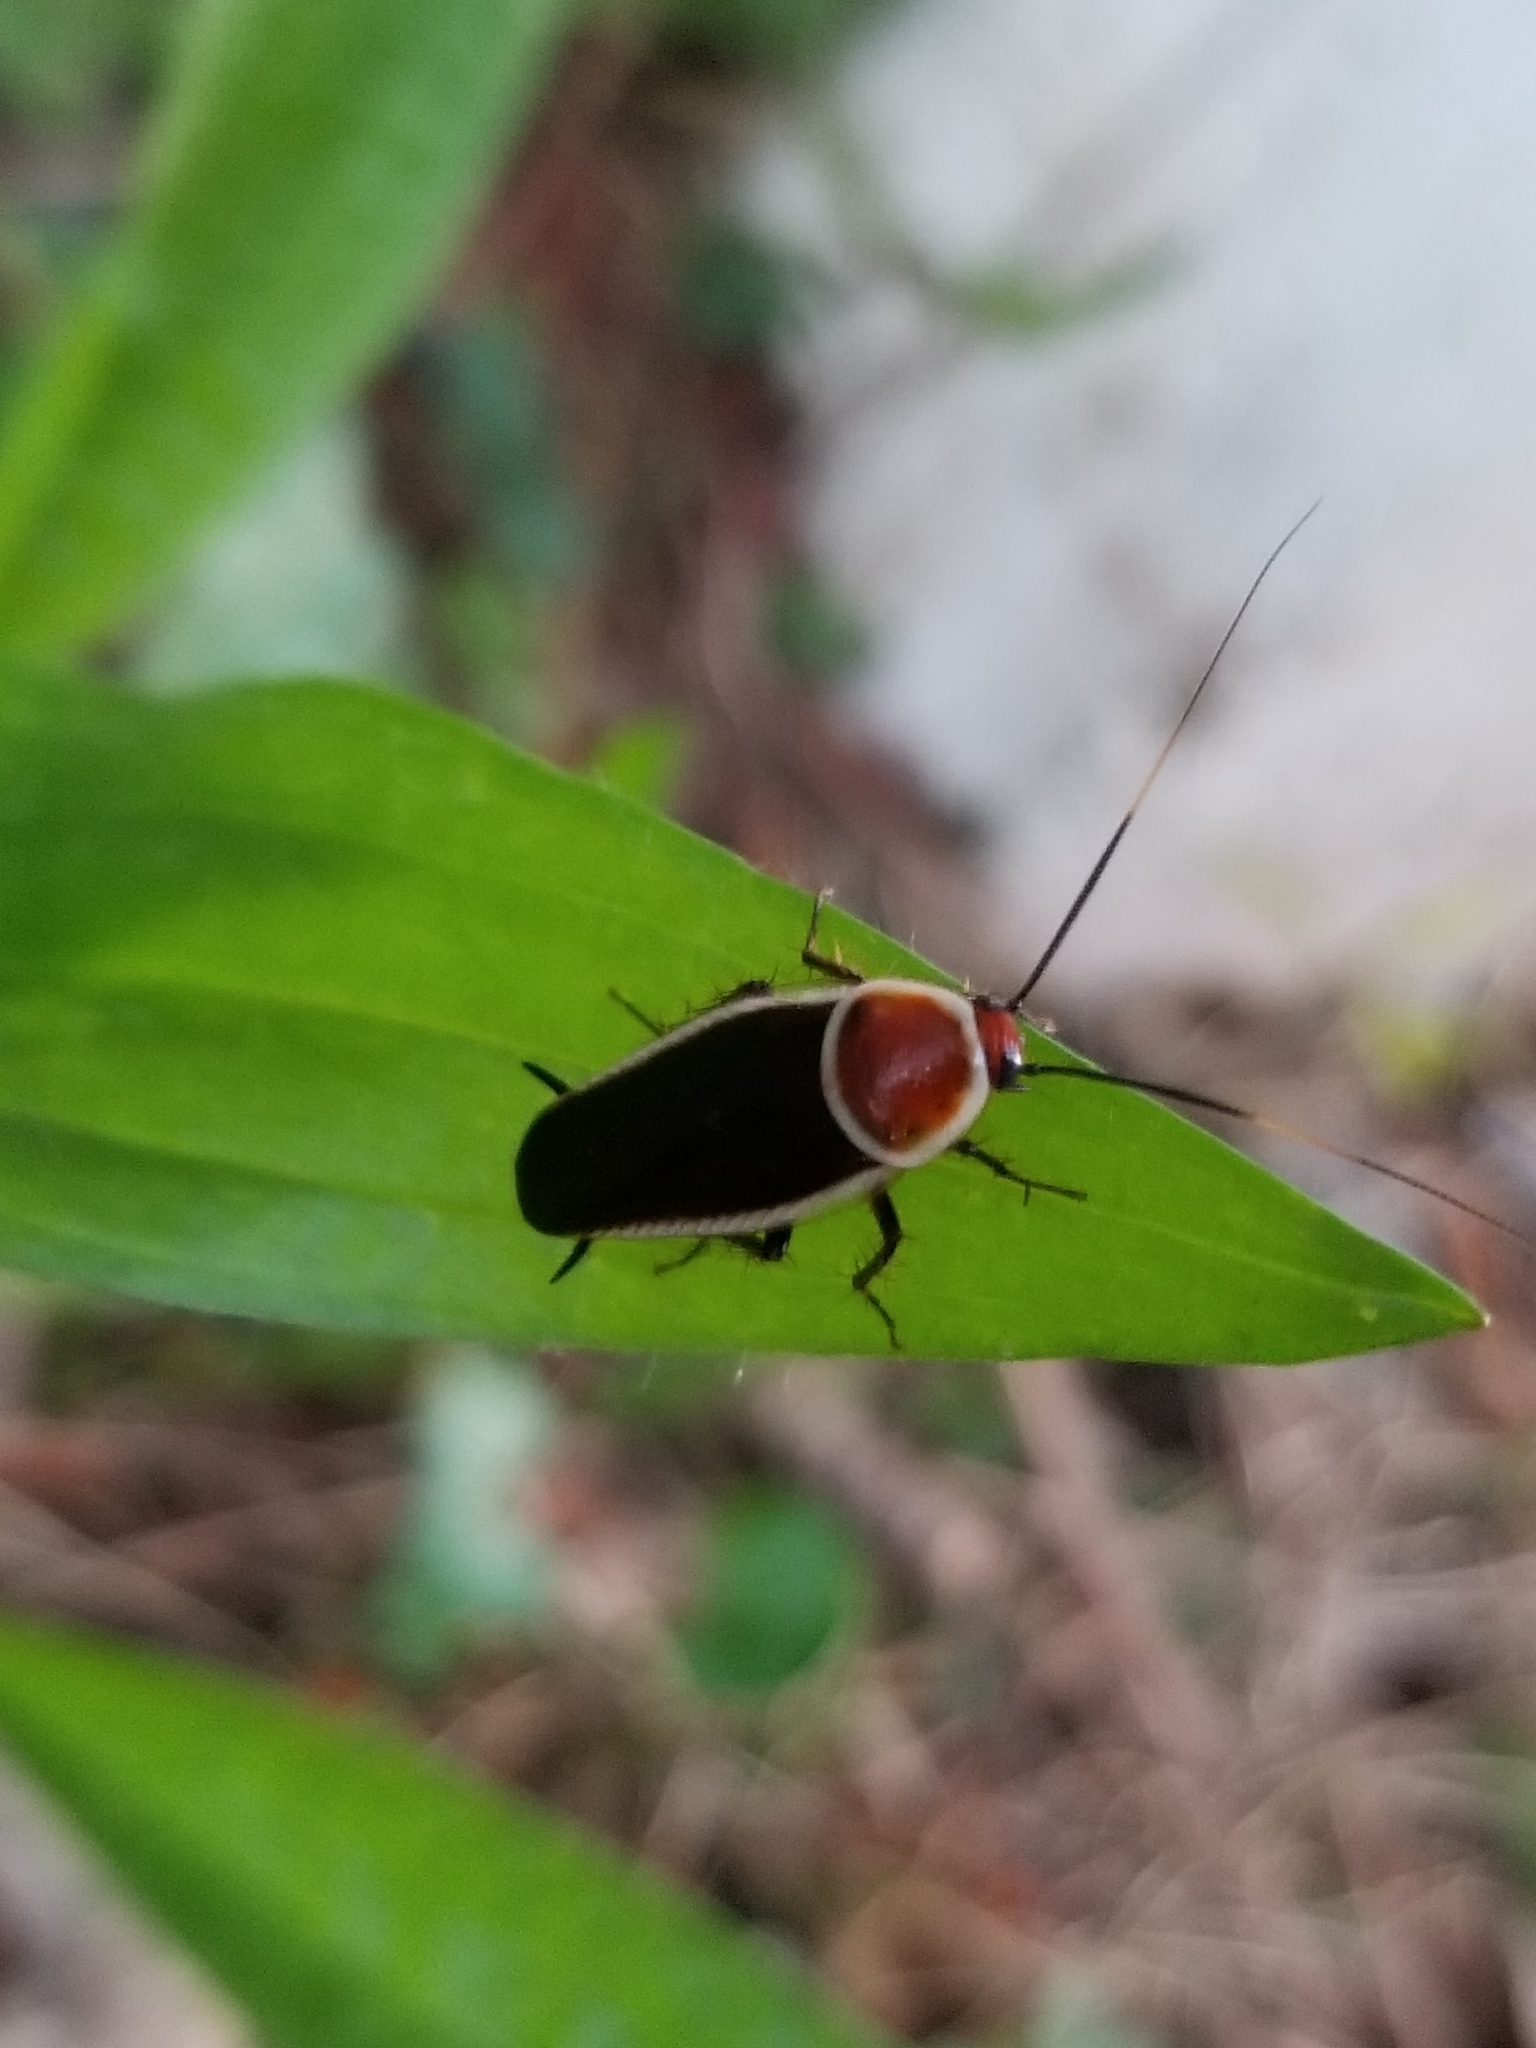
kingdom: Animalia
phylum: Arthropoda
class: Insecta
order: Blattodea
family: Ectobiidae
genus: Pseudomops
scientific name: Pseudomops septentrionalis
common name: Pale-bordered field cockroach
